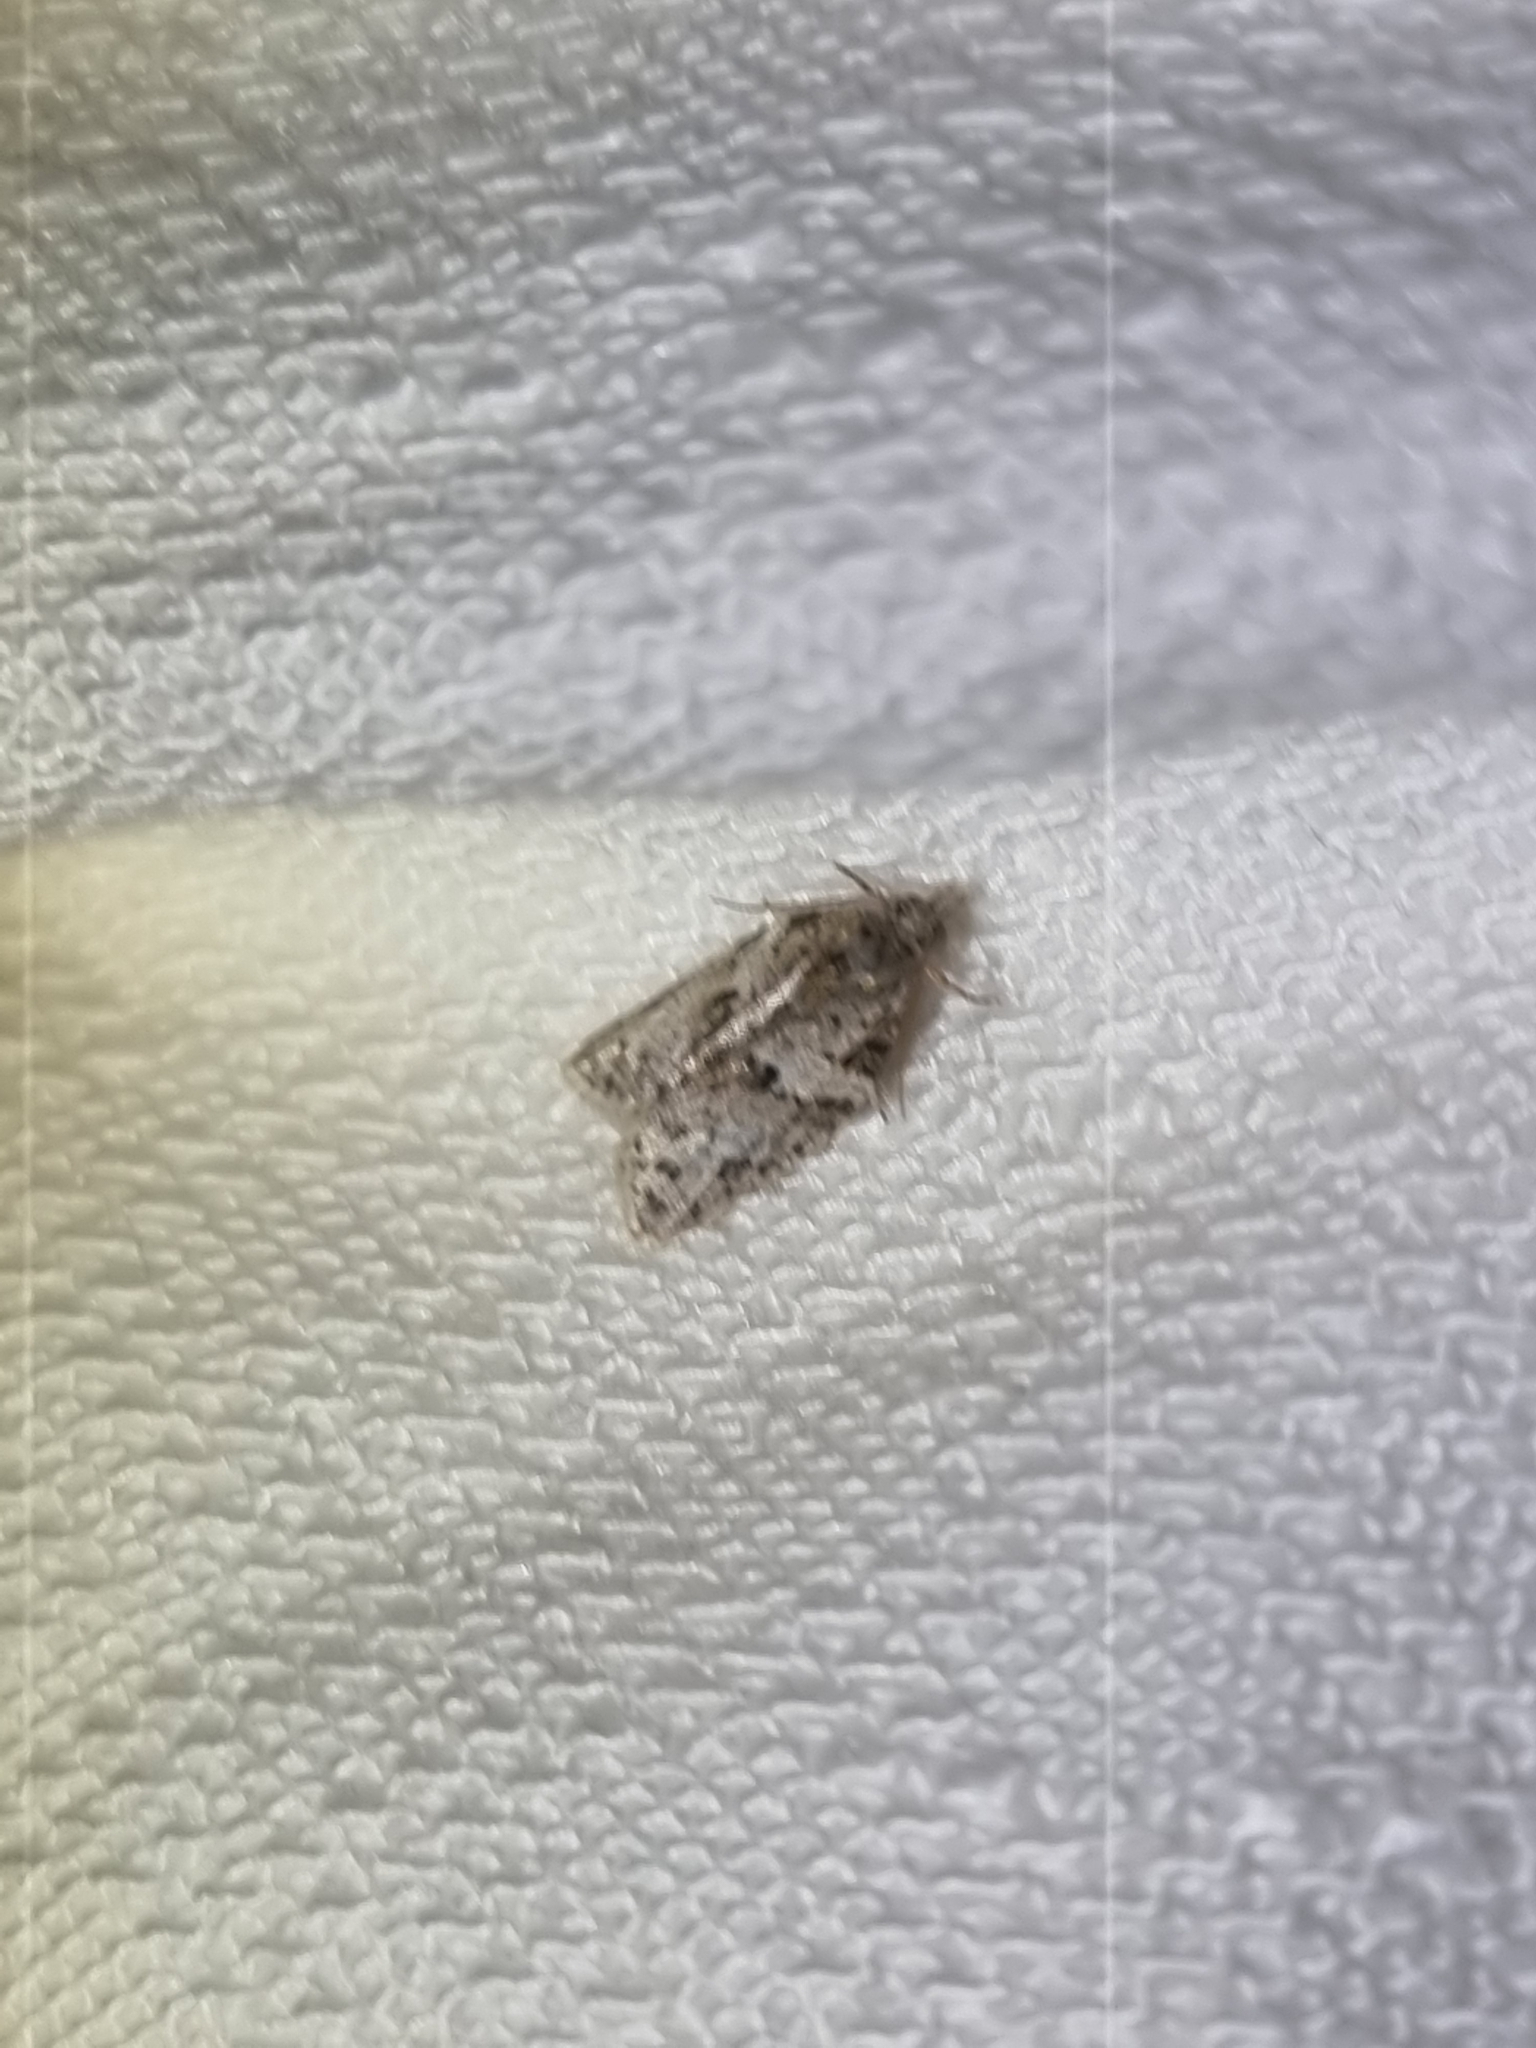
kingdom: Animalia
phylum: Arthropoda
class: Insecta
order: Lepidoptera
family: Tortricidae
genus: Isotenes
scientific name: Isotenes miserana
